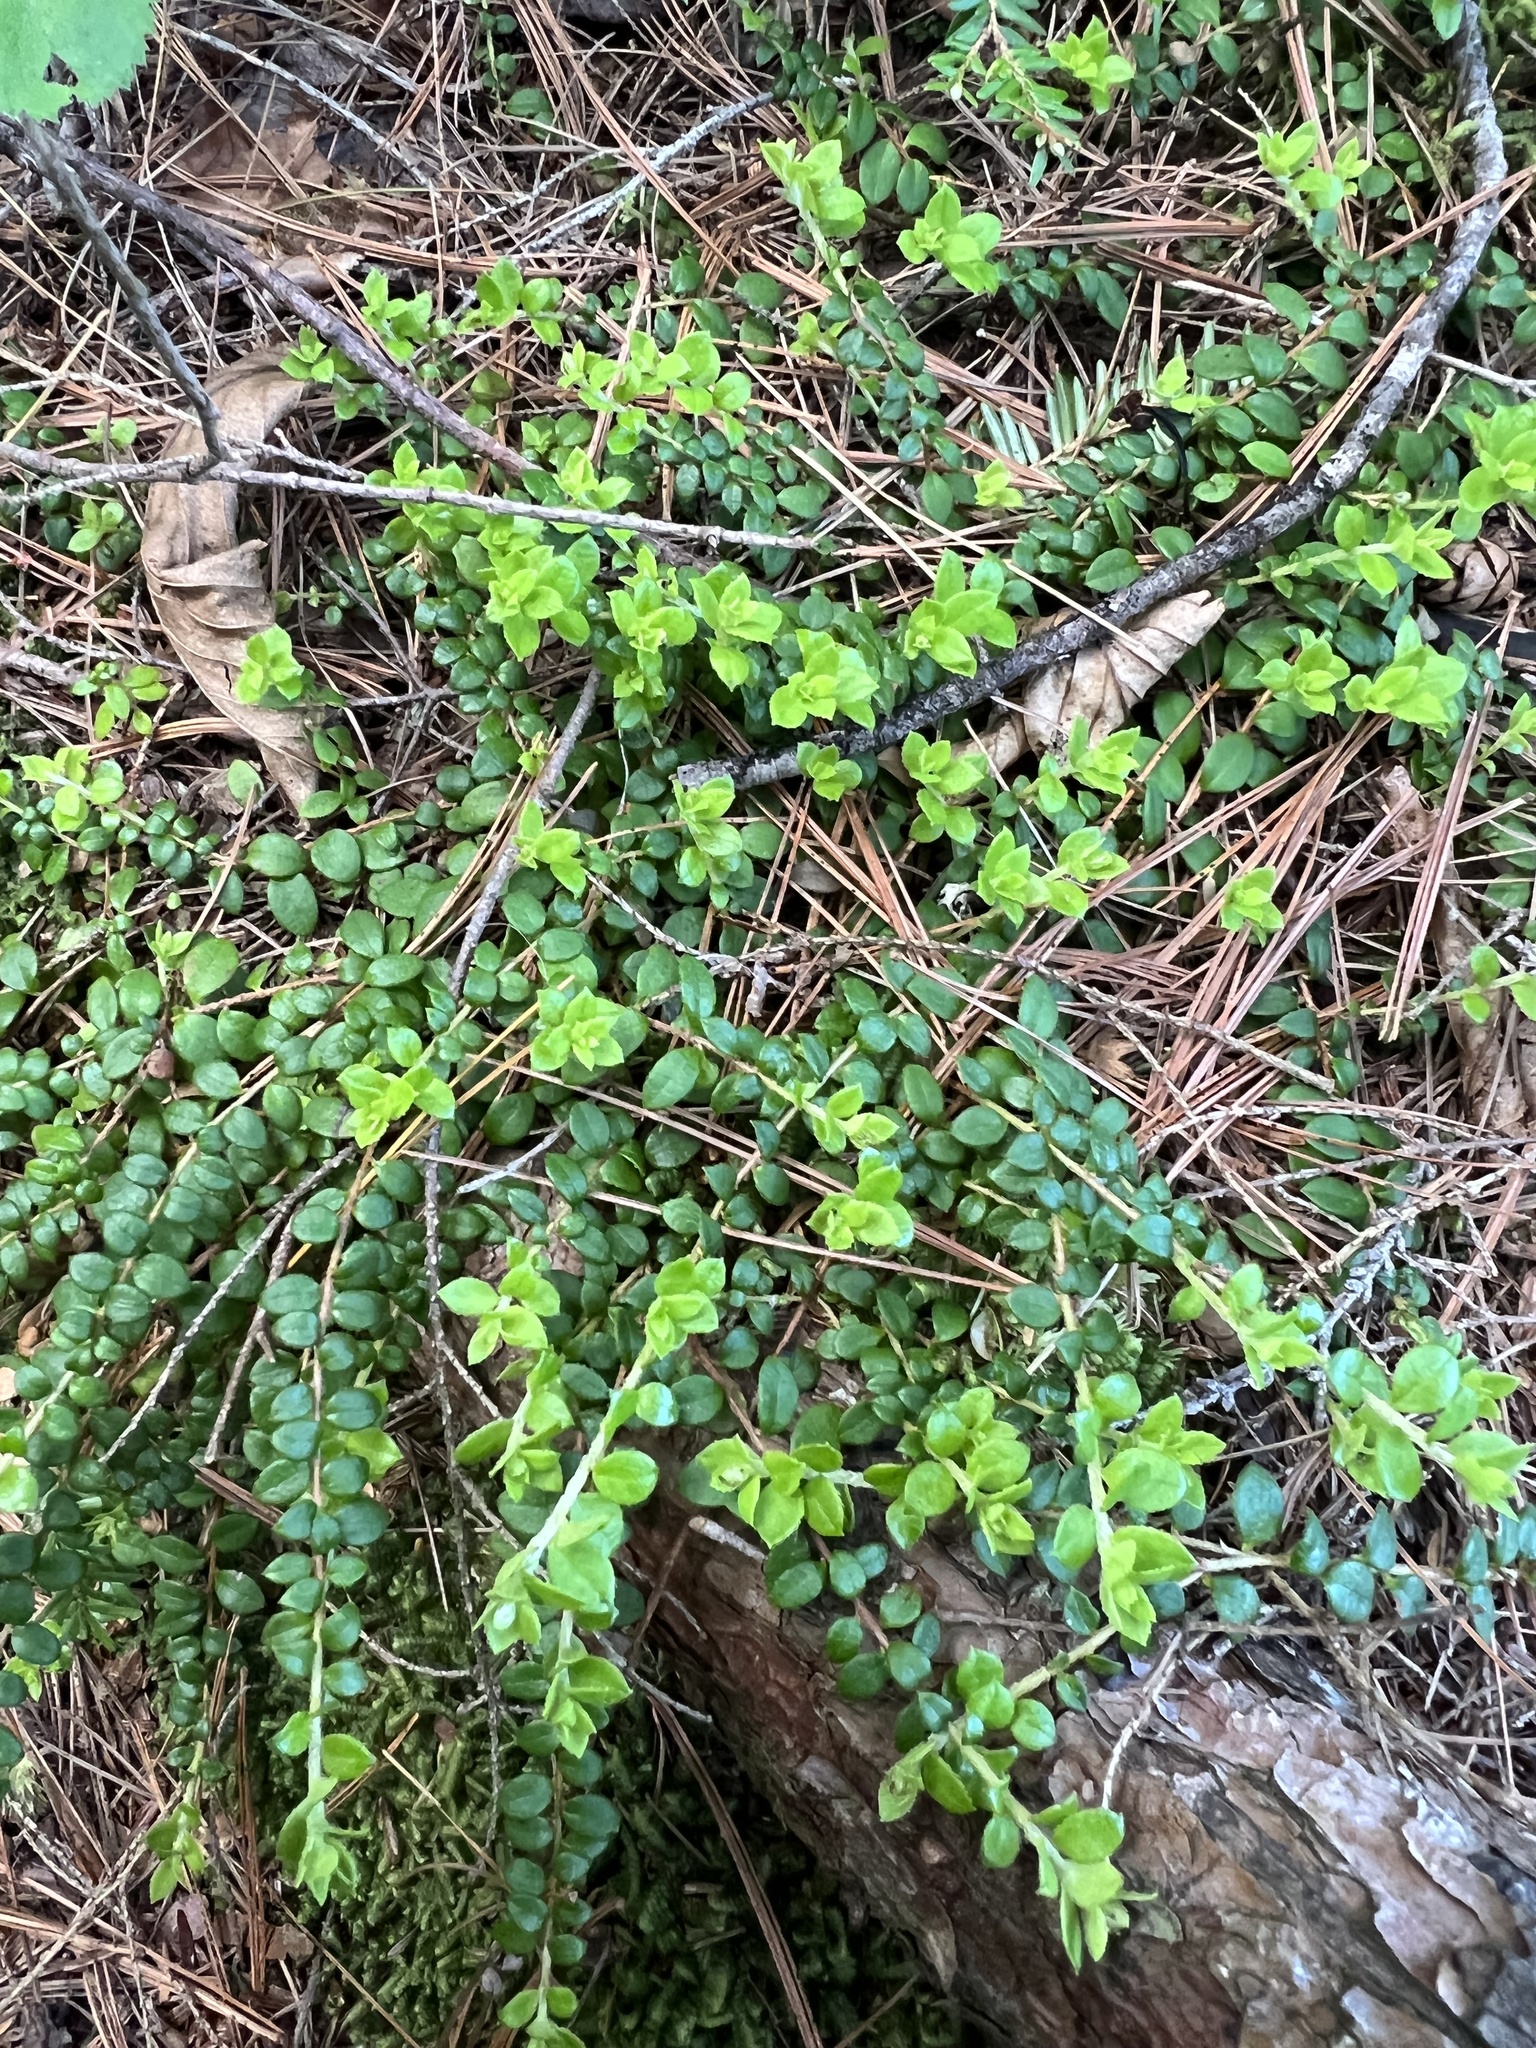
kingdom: Plantae
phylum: Tracheophyta
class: Magnoliopsida
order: Ericales
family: Ericaceae
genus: Gaultheria
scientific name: Gaultheria hispidula
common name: Cancer wintergreen
